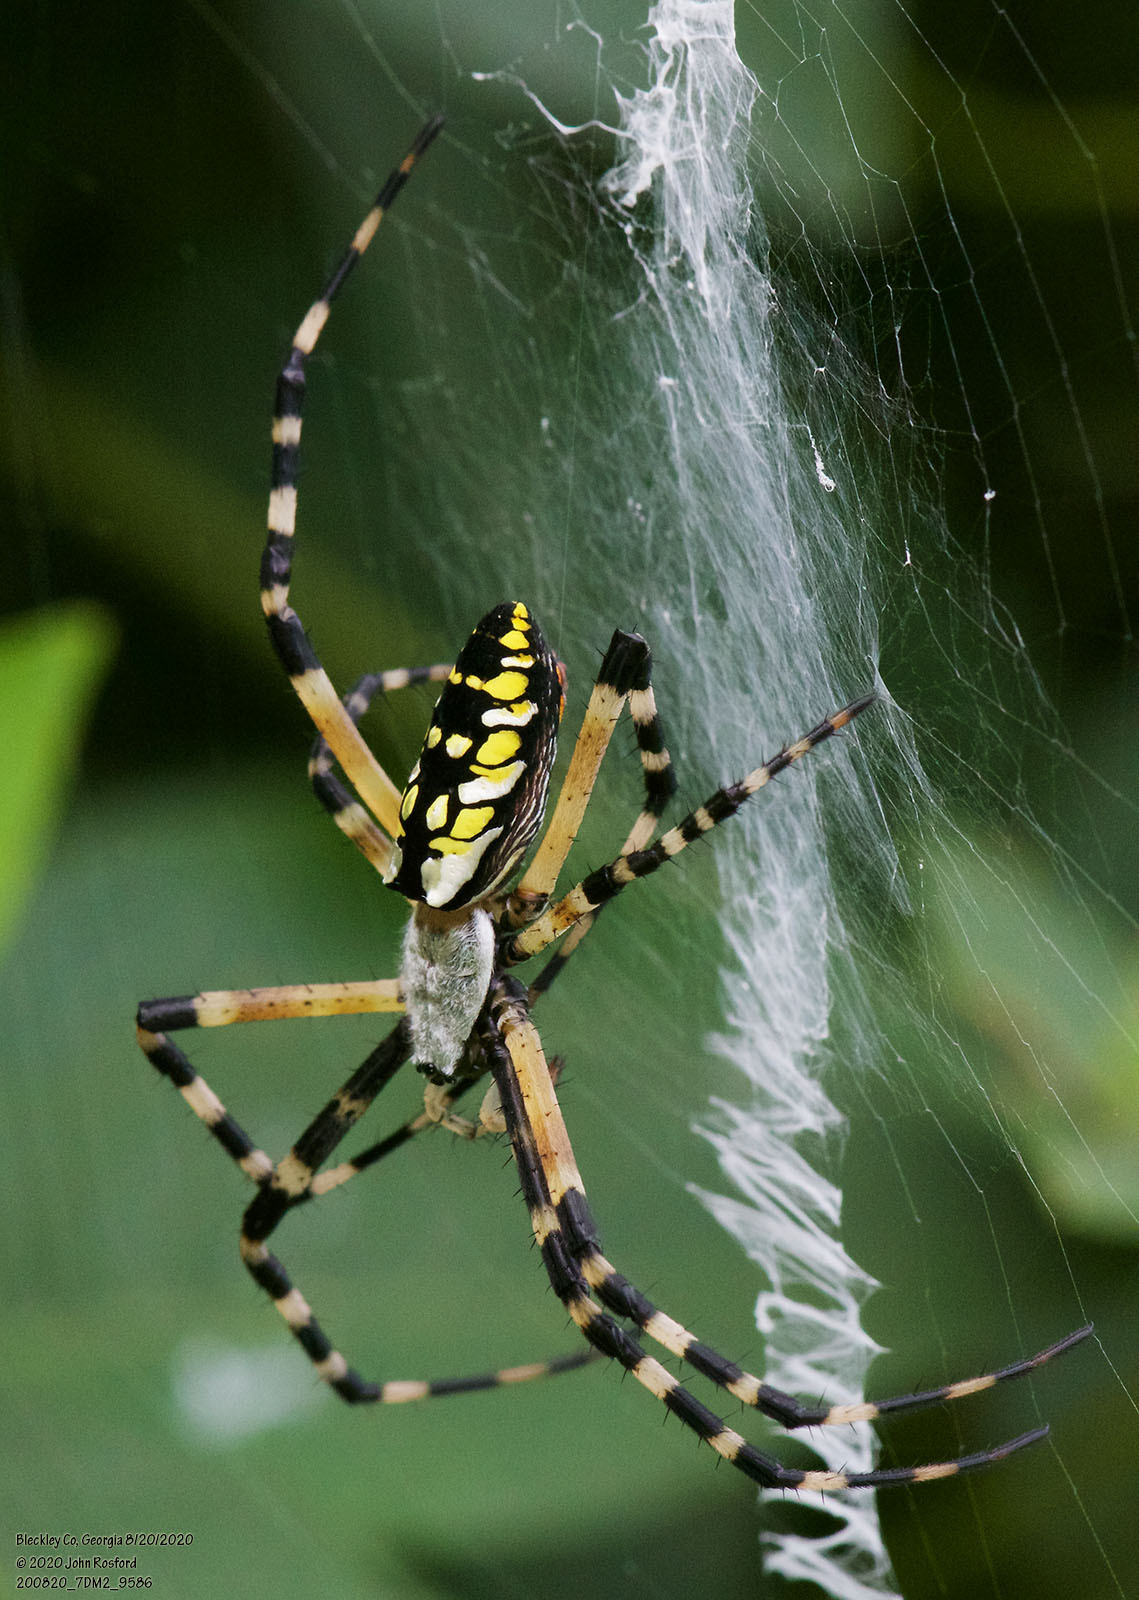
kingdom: Animalia
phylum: Arthropoda
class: Arachnida
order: Araneae
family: Araneidae
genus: Argiope
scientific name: Argiope aurantia
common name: Orb weavers
